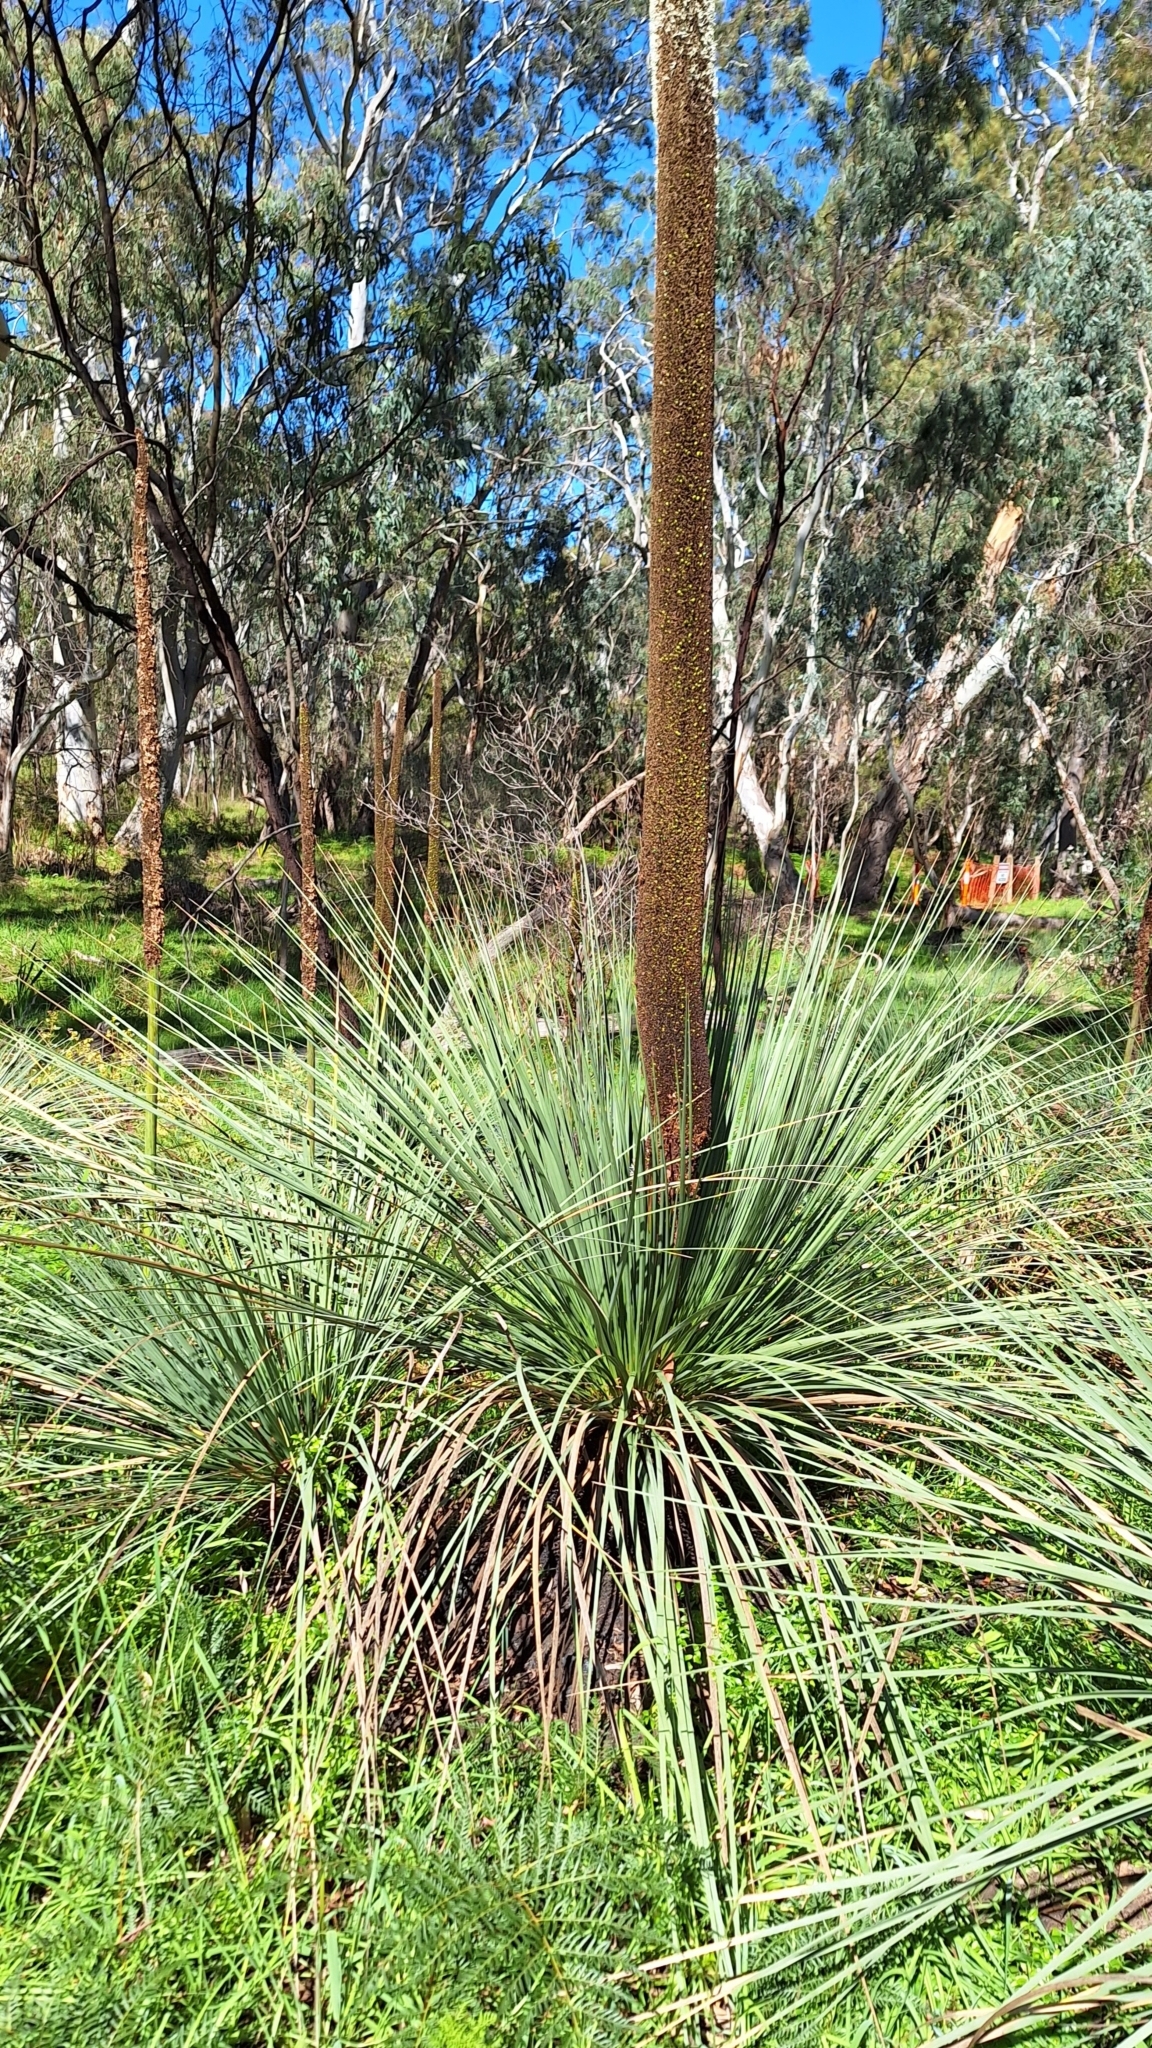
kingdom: Plantae
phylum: Tracheophyta
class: Liliopsida
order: Asparagales
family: Asphodelaceae
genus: Xanthorrhoea
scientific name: Xanthorrhoea semiplana
